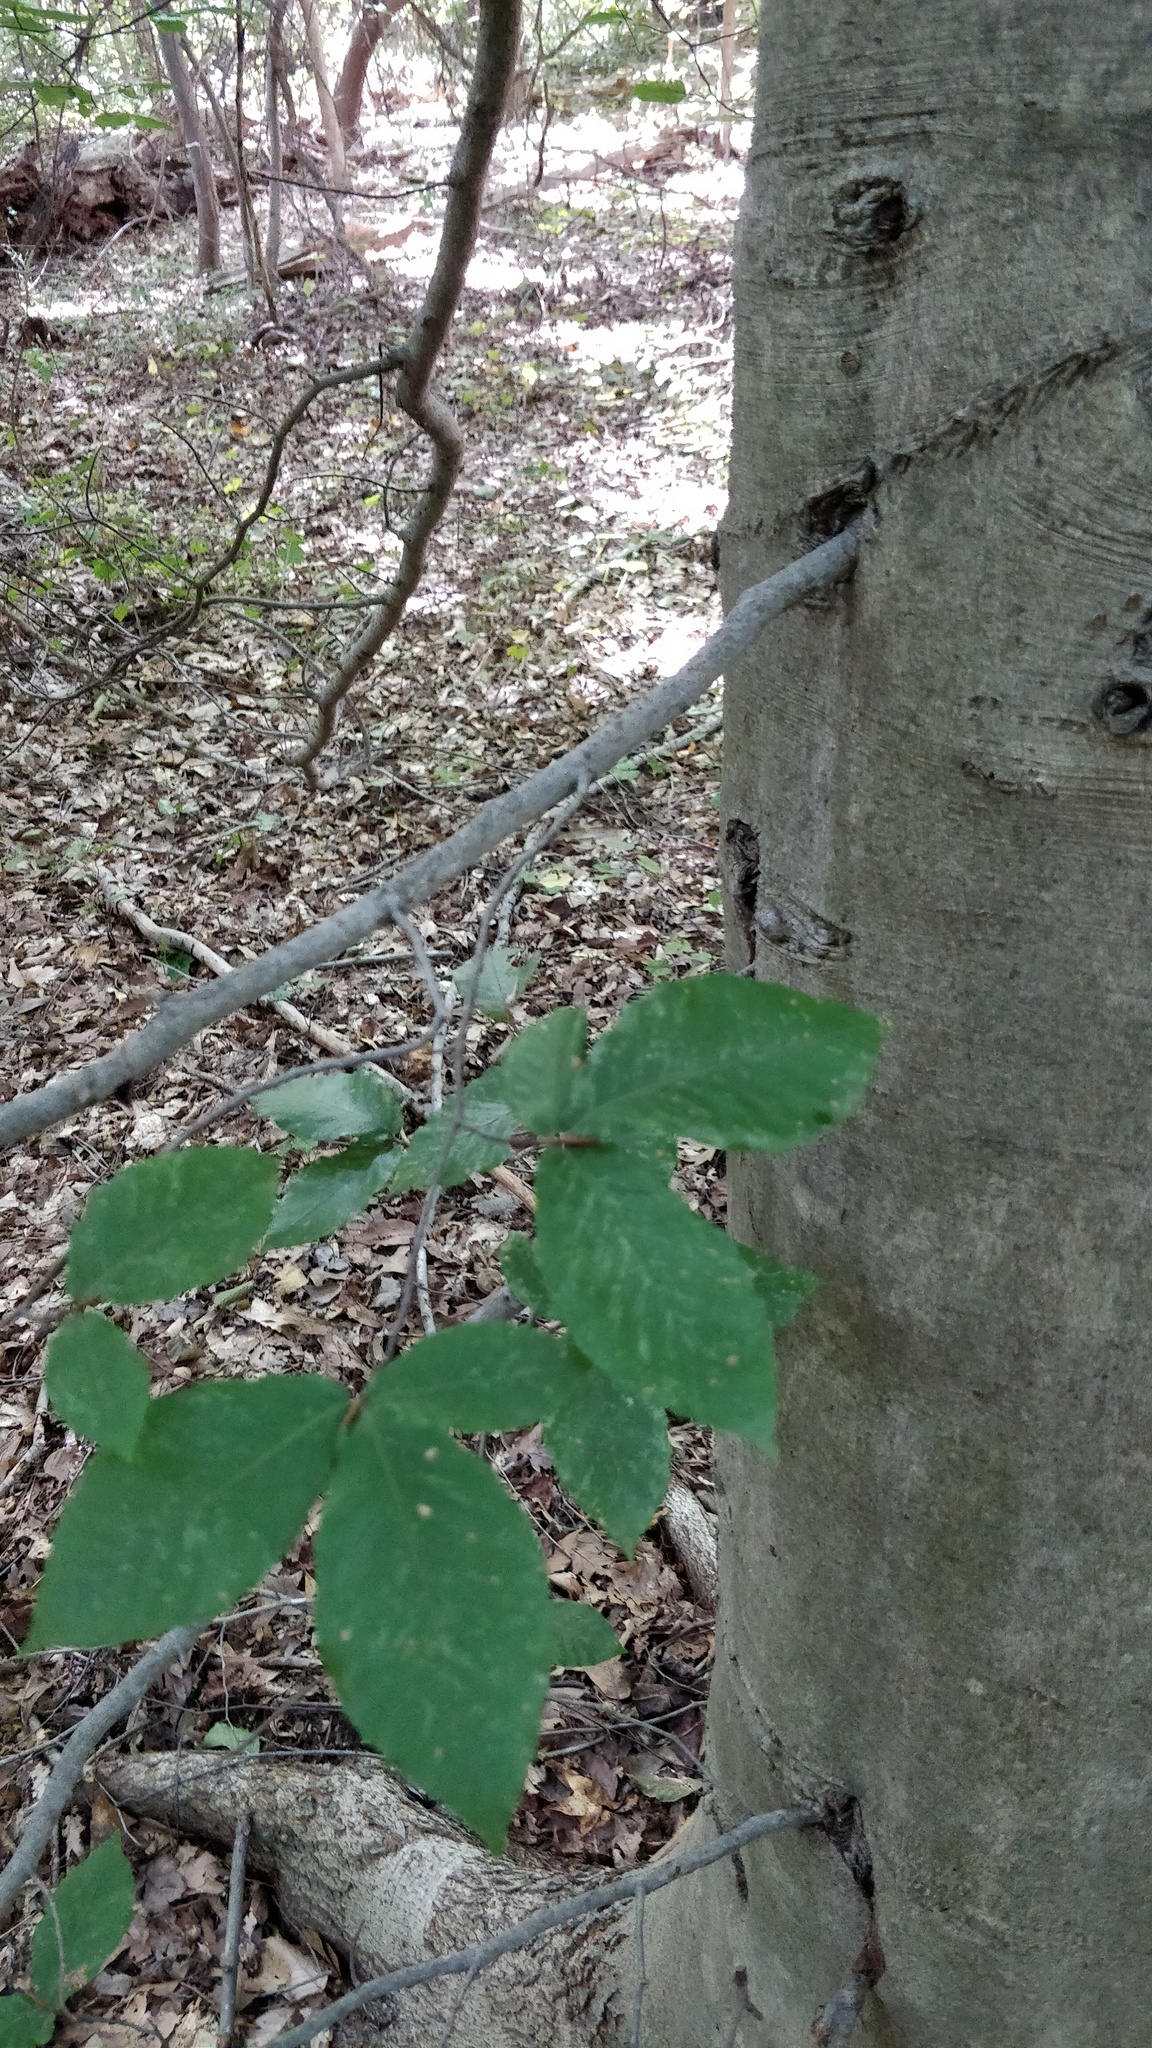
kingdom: Plantae
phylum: Tracheophyta
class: Magnoliopsida
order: Fagales
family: Fagaceae
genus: Fagus
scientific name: Fagus grandifolia
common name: American beech
